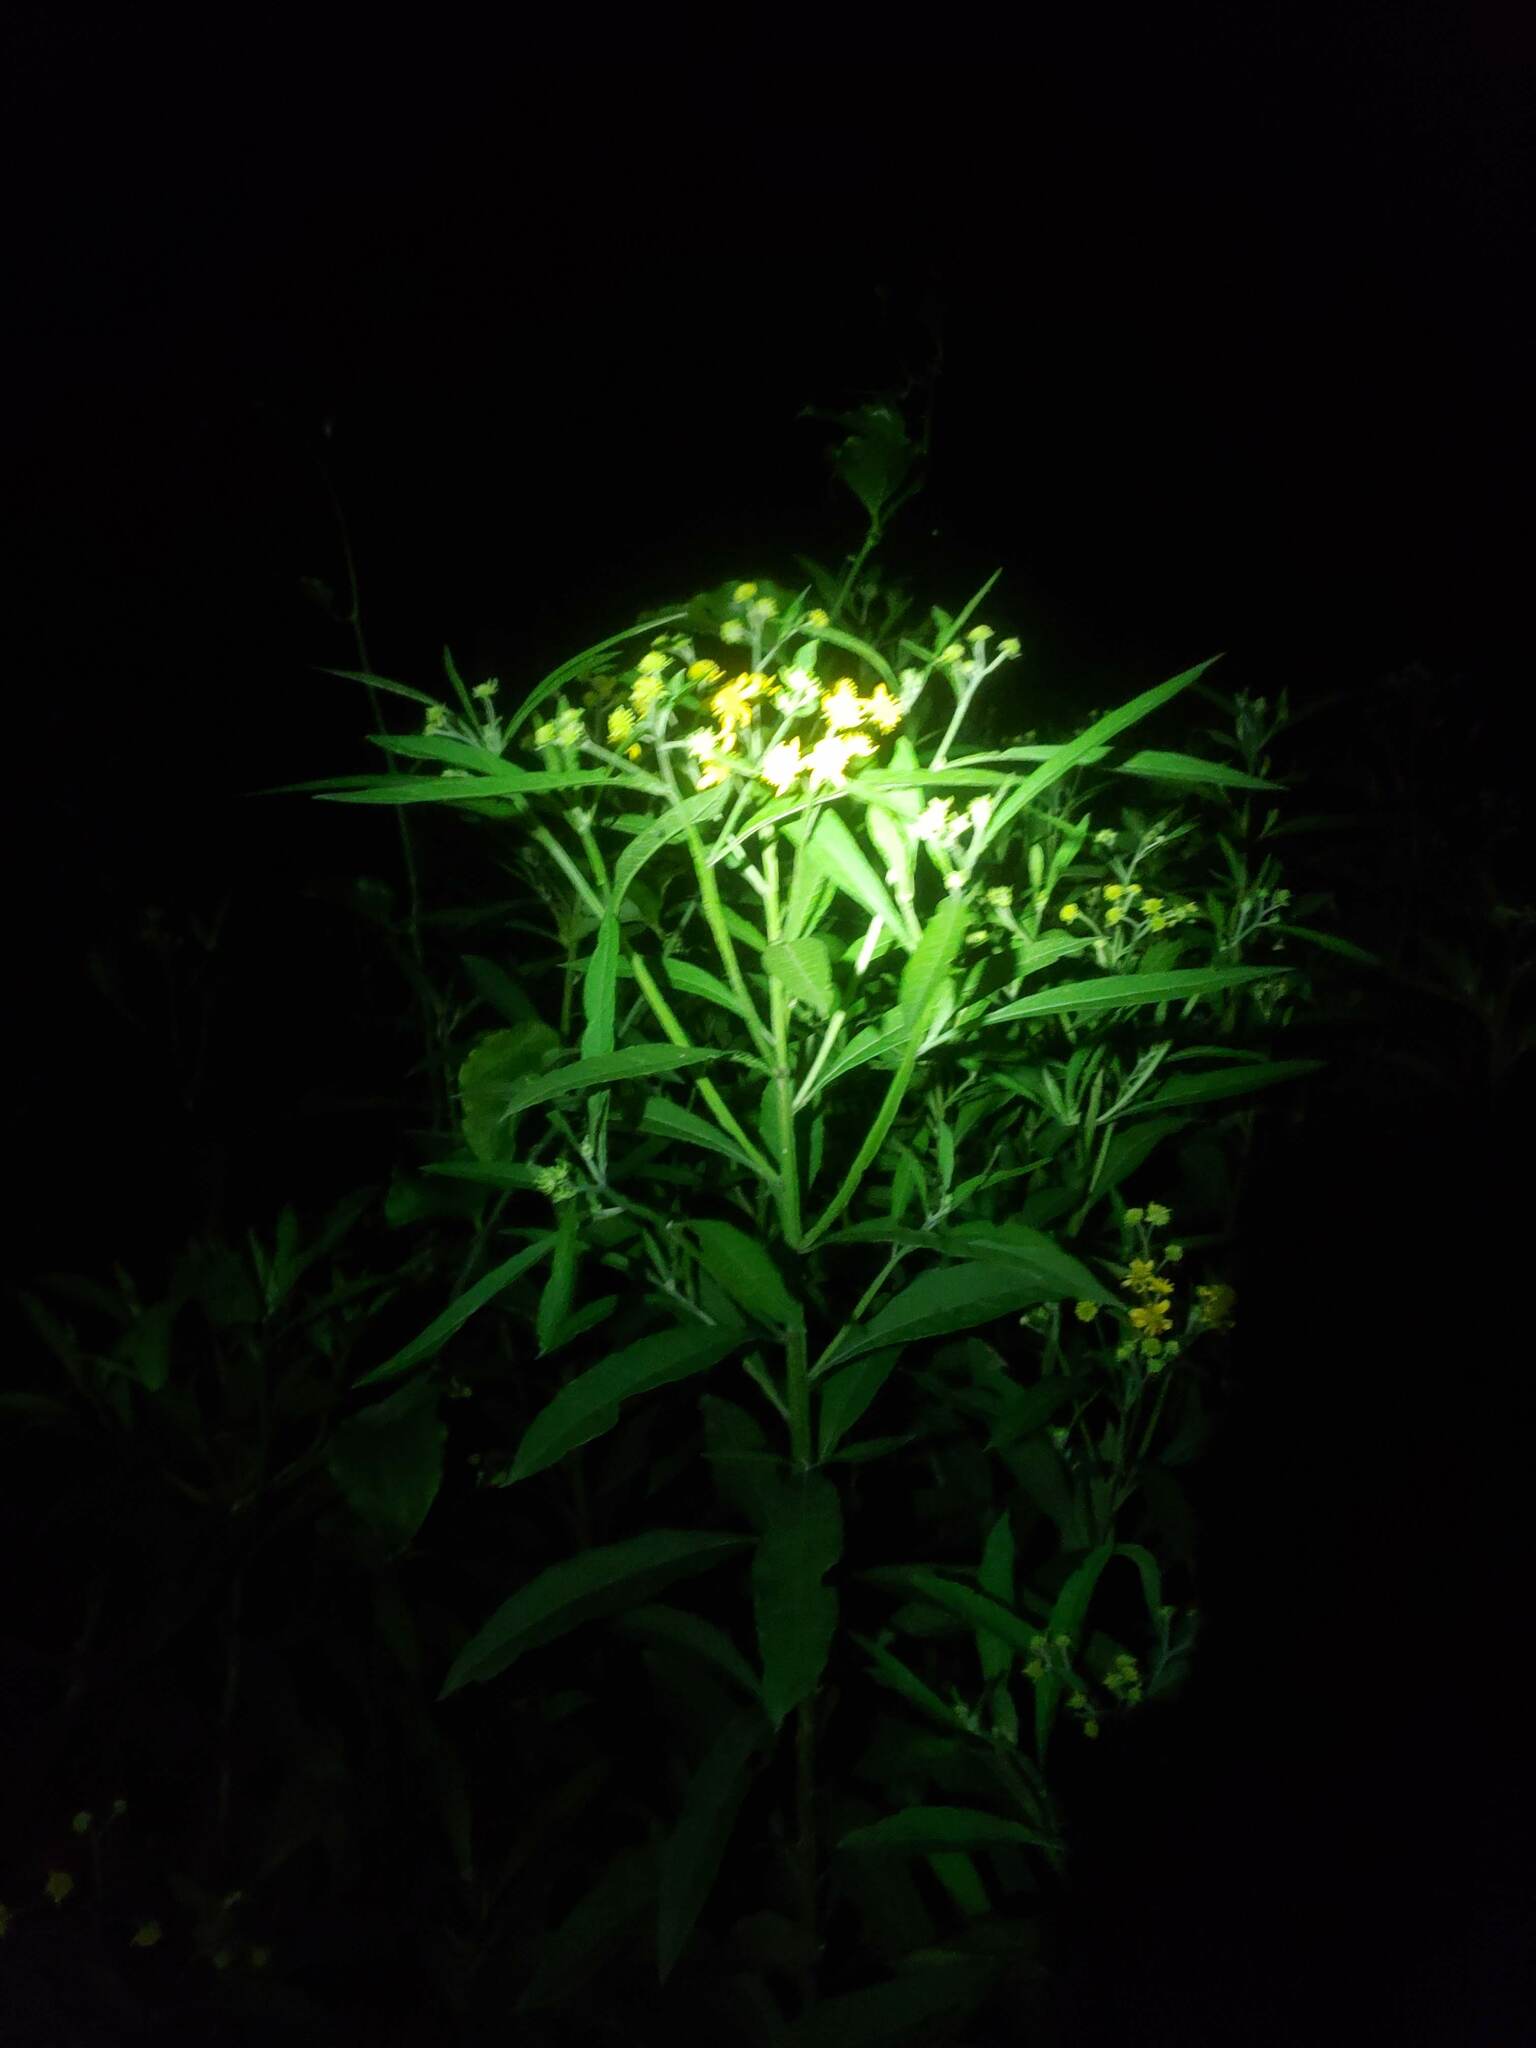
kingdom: Plantae
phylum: Tracheophyta
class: Magnoliopsida
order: Asterales
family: Asteraceae
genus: Verbesina
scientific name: Verbesina alternifolia
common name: Wingstem
